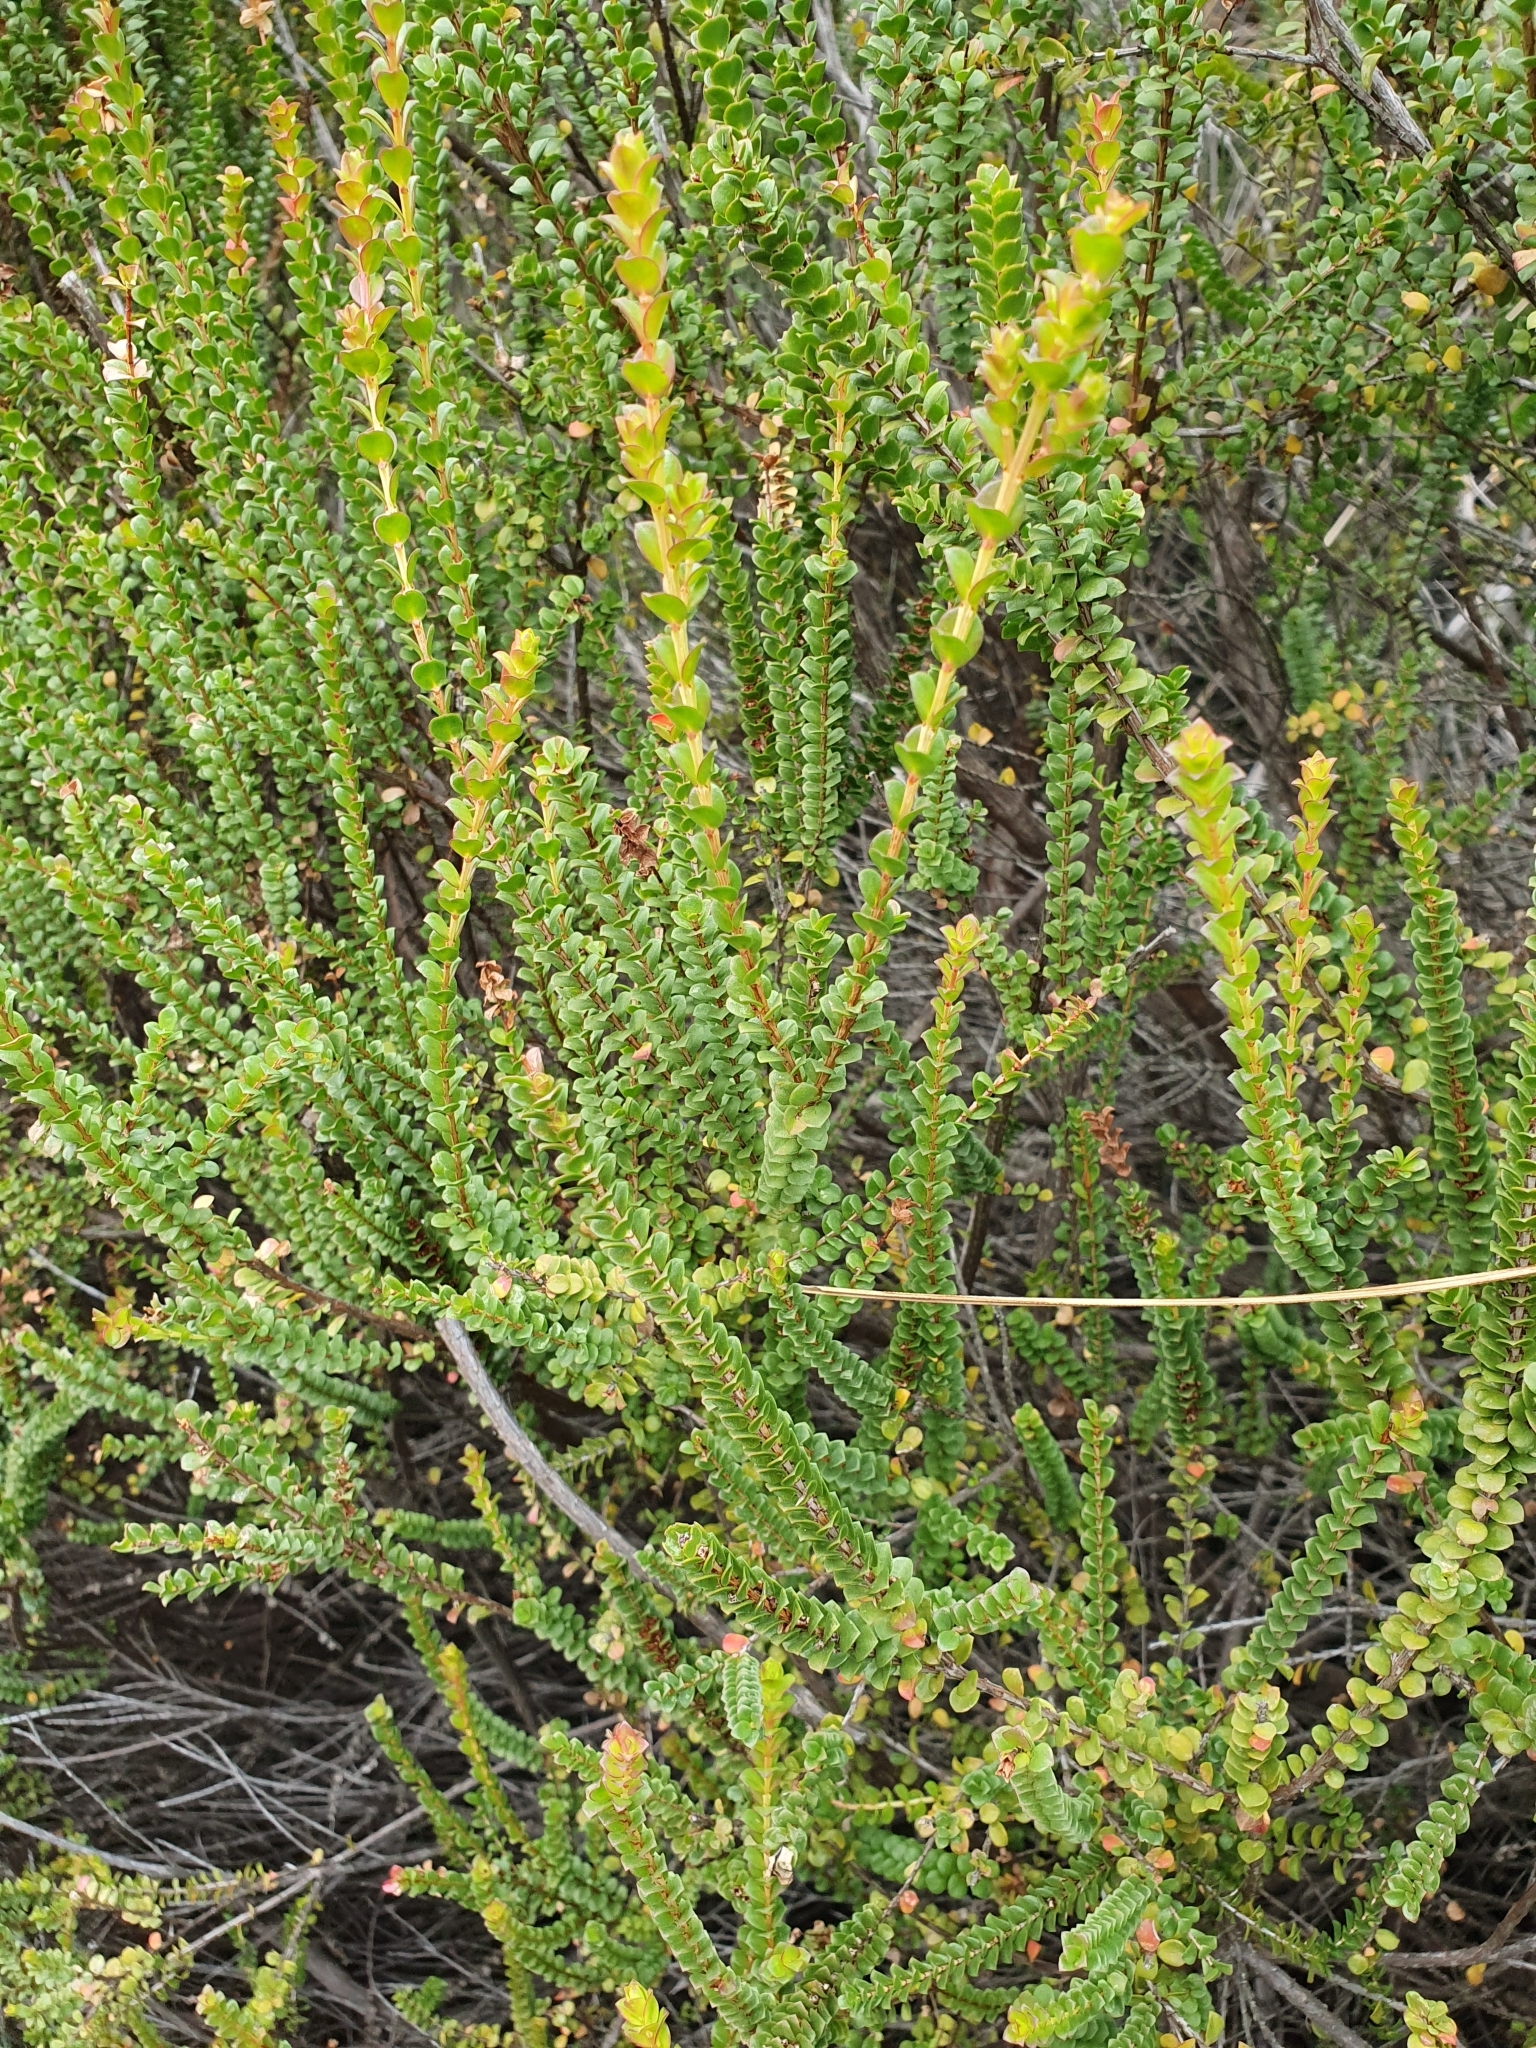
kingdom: Plantae
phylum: Tracheophyta
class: Magnoliopsida
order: Myrtales
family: Myrtaceae
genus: Baeckea
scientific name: Baeckea imbricata
